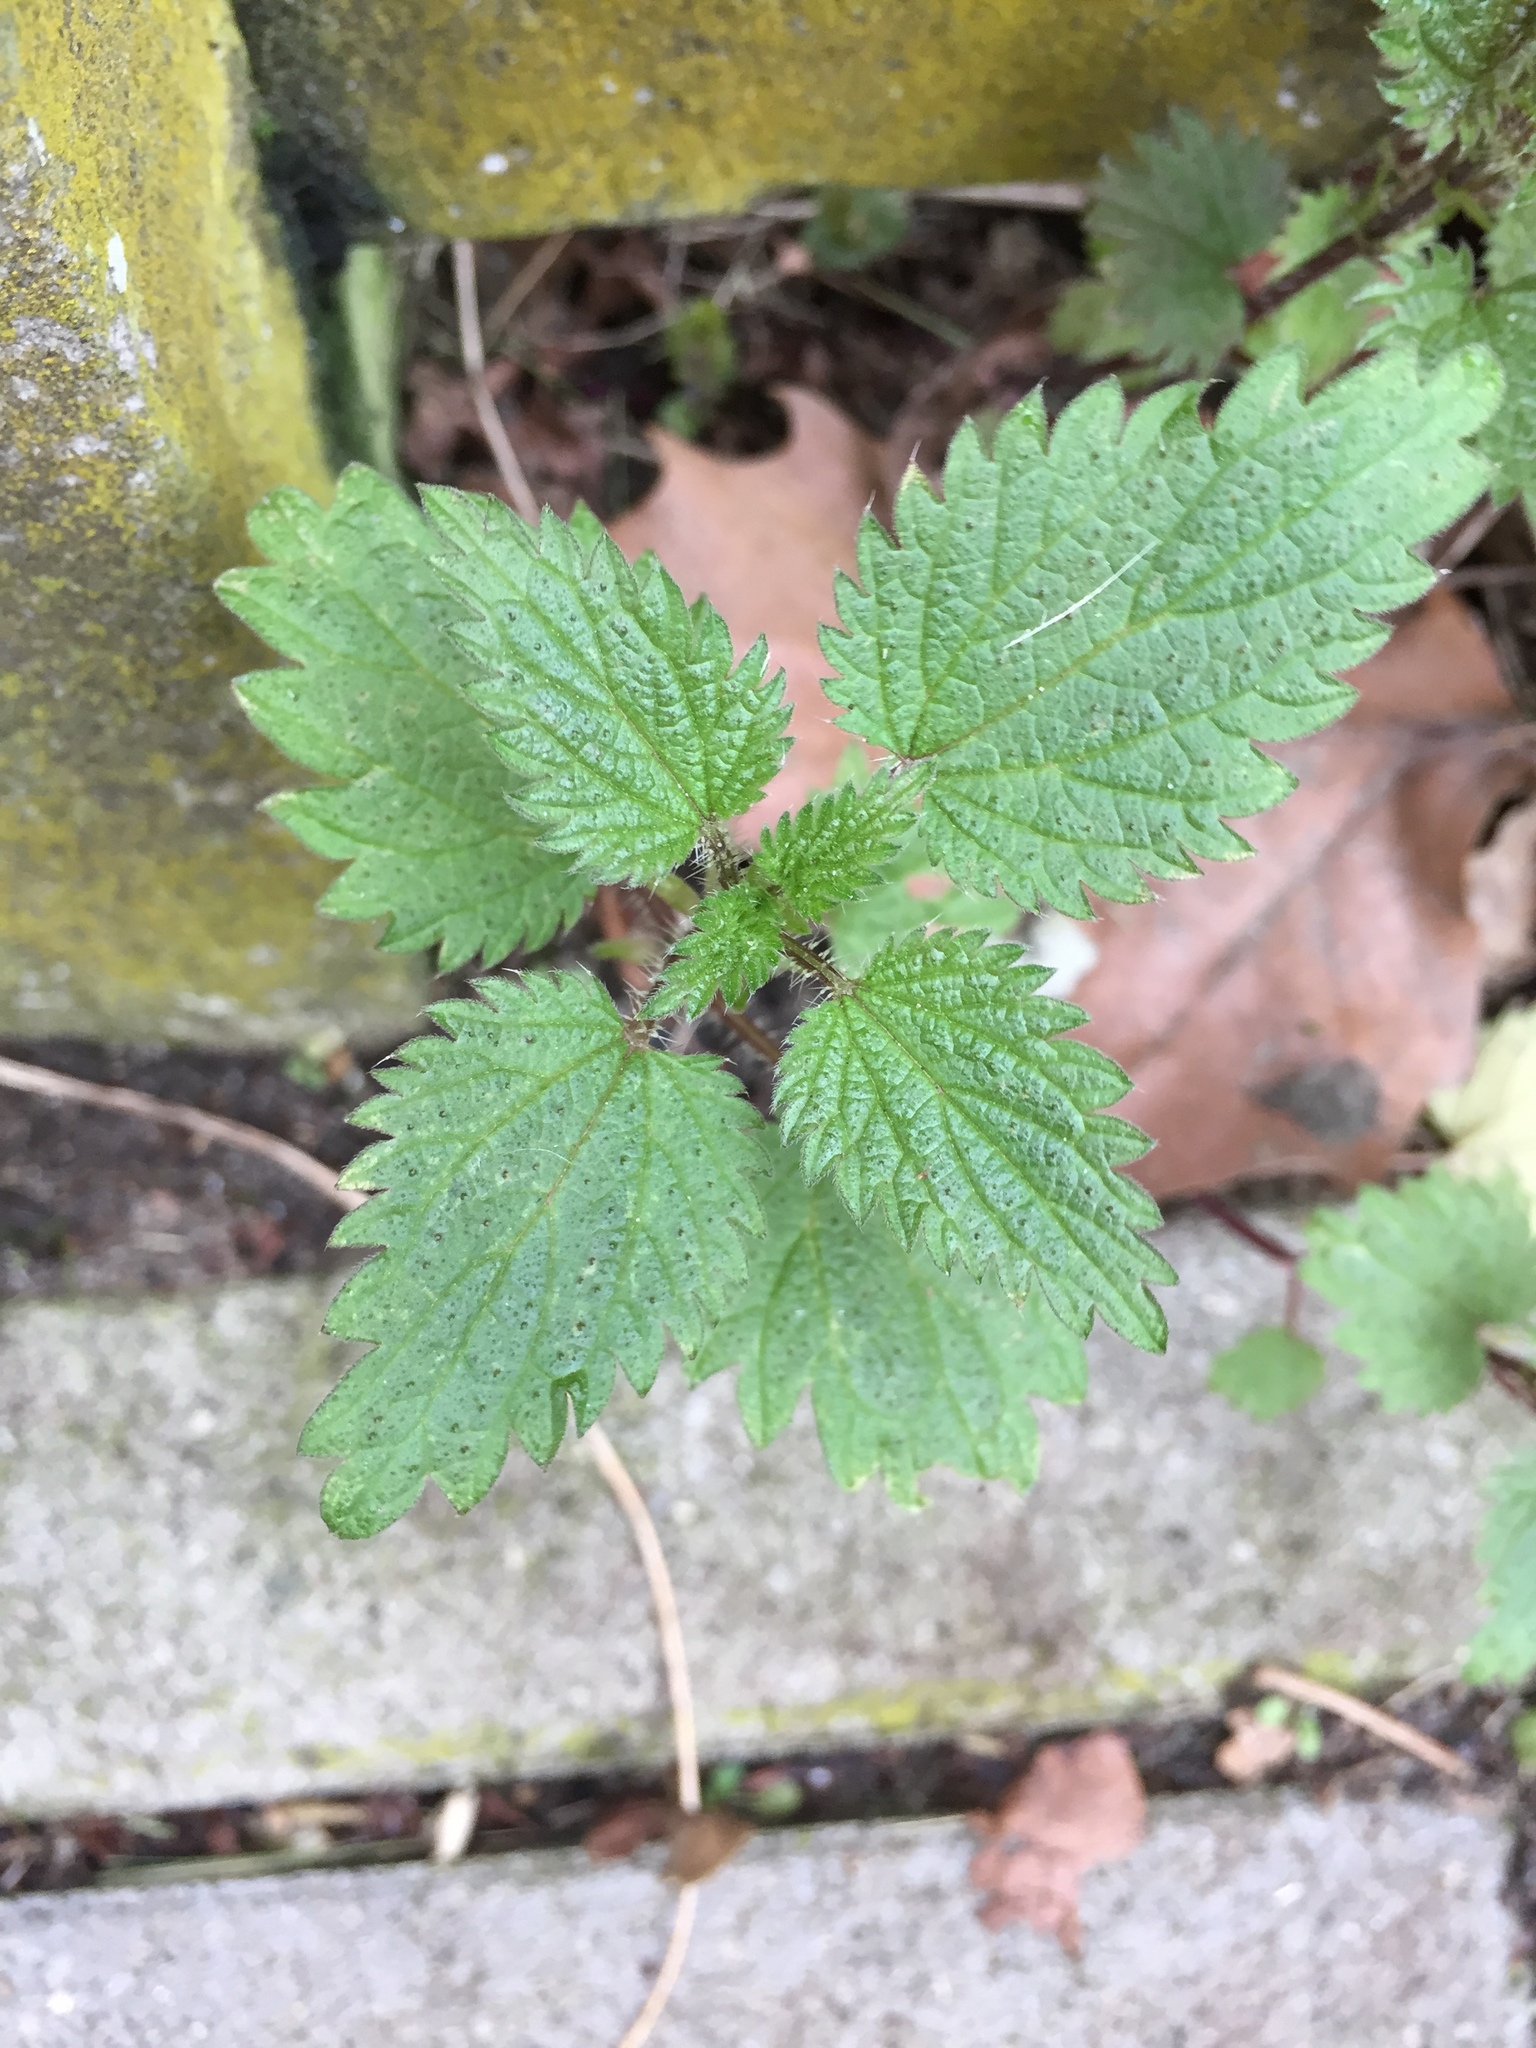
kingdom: Plantae
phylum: Tracheophyta
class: Magnoliopsida
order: Rosales
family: Urticaceae
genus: Urtica
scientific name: Urtica dioica
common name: Common nettle
